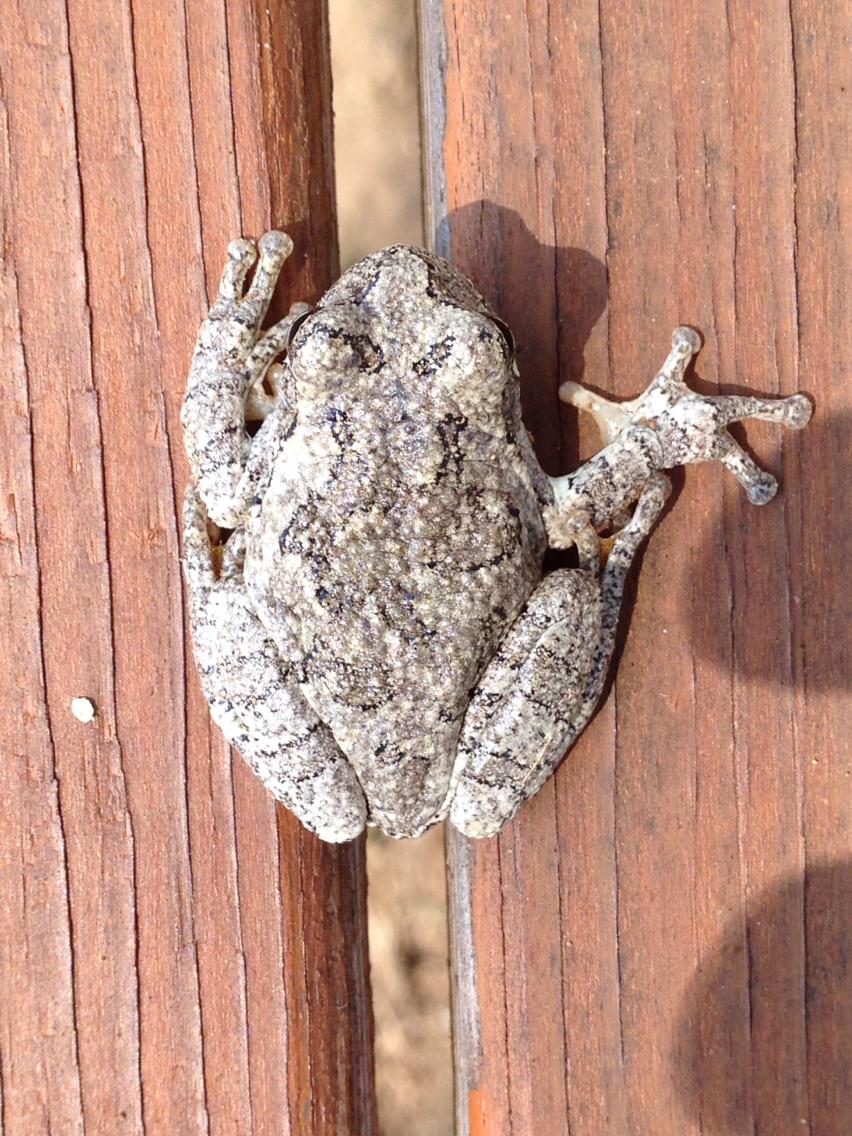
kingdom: Animalia
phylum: Chordata
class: Amphibia
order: Anura
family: Hylidae
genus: Dryophytes
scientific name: Dryophytes chrysoscelis
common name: Cope's gray treefrog
